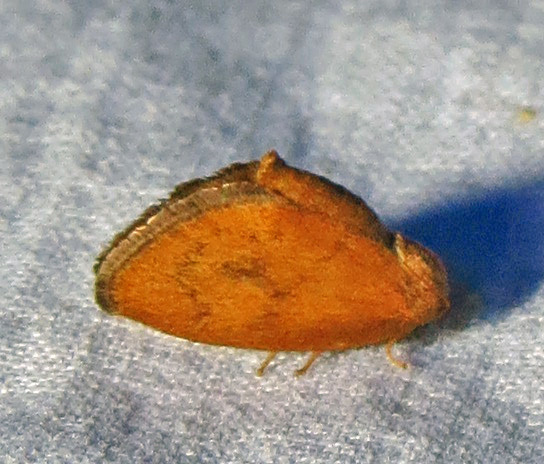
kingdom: Animalia
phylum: Arthropoda
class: Insecta
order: Lepidoptera
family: Limacodidae
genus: Heterogenea
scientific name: Heterogenea shurtleffi
